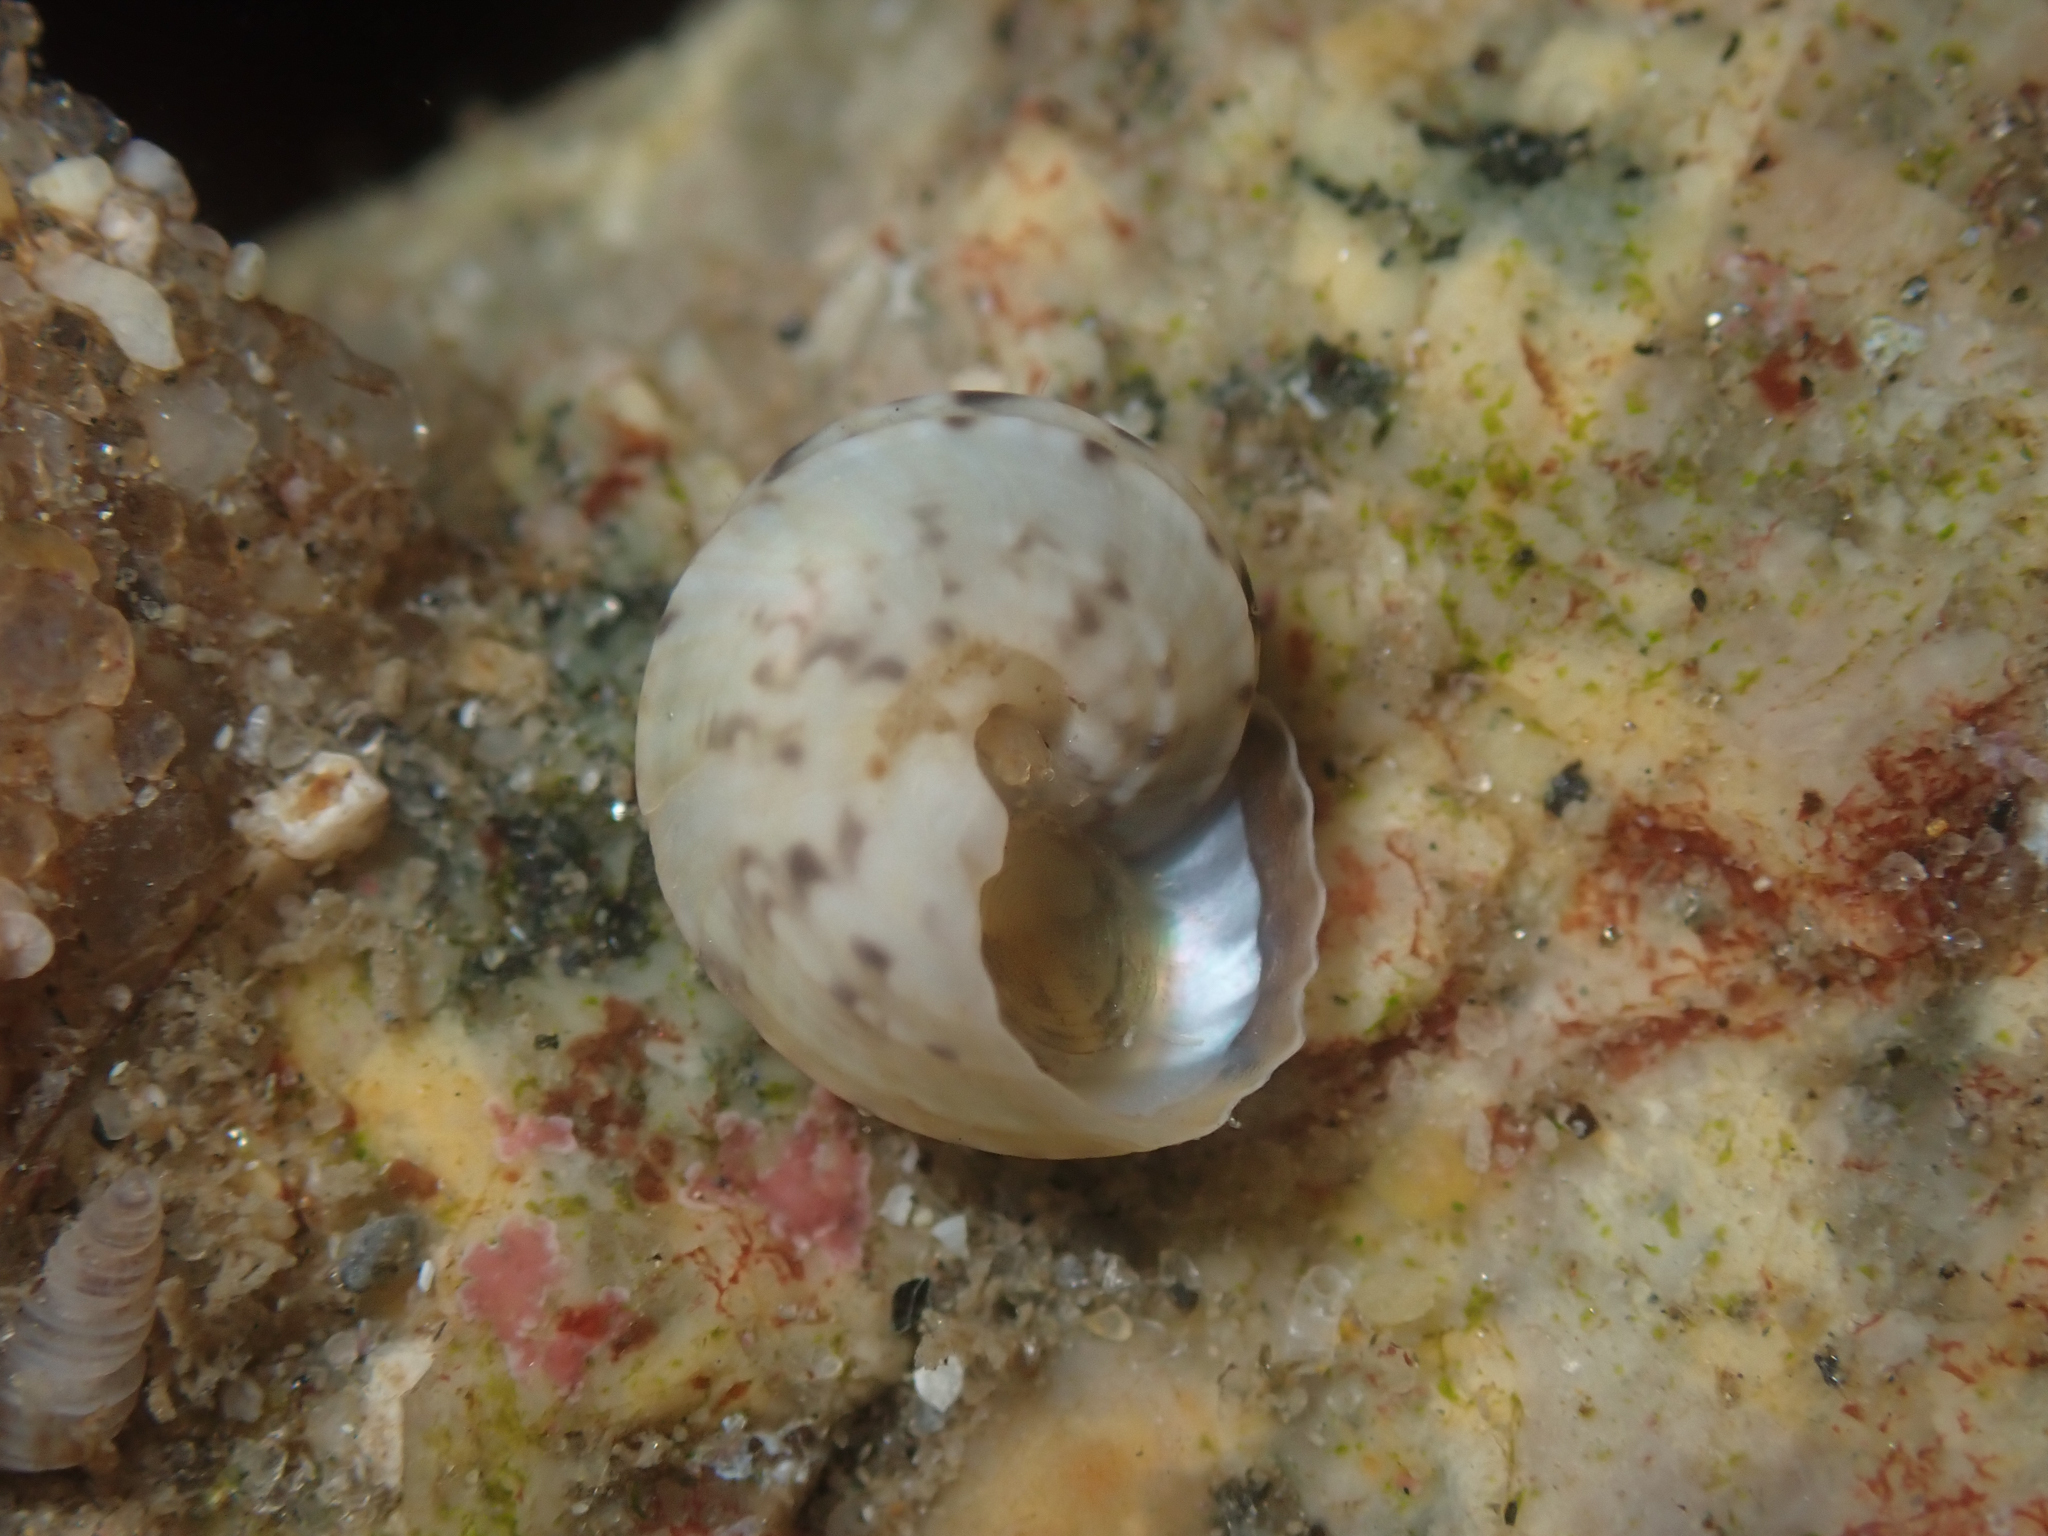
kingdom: Animalia
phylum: Mollusca
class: Gastropoda
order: Trochida
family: Tegulidae
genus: Tegula
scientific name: Tegula eiseni
